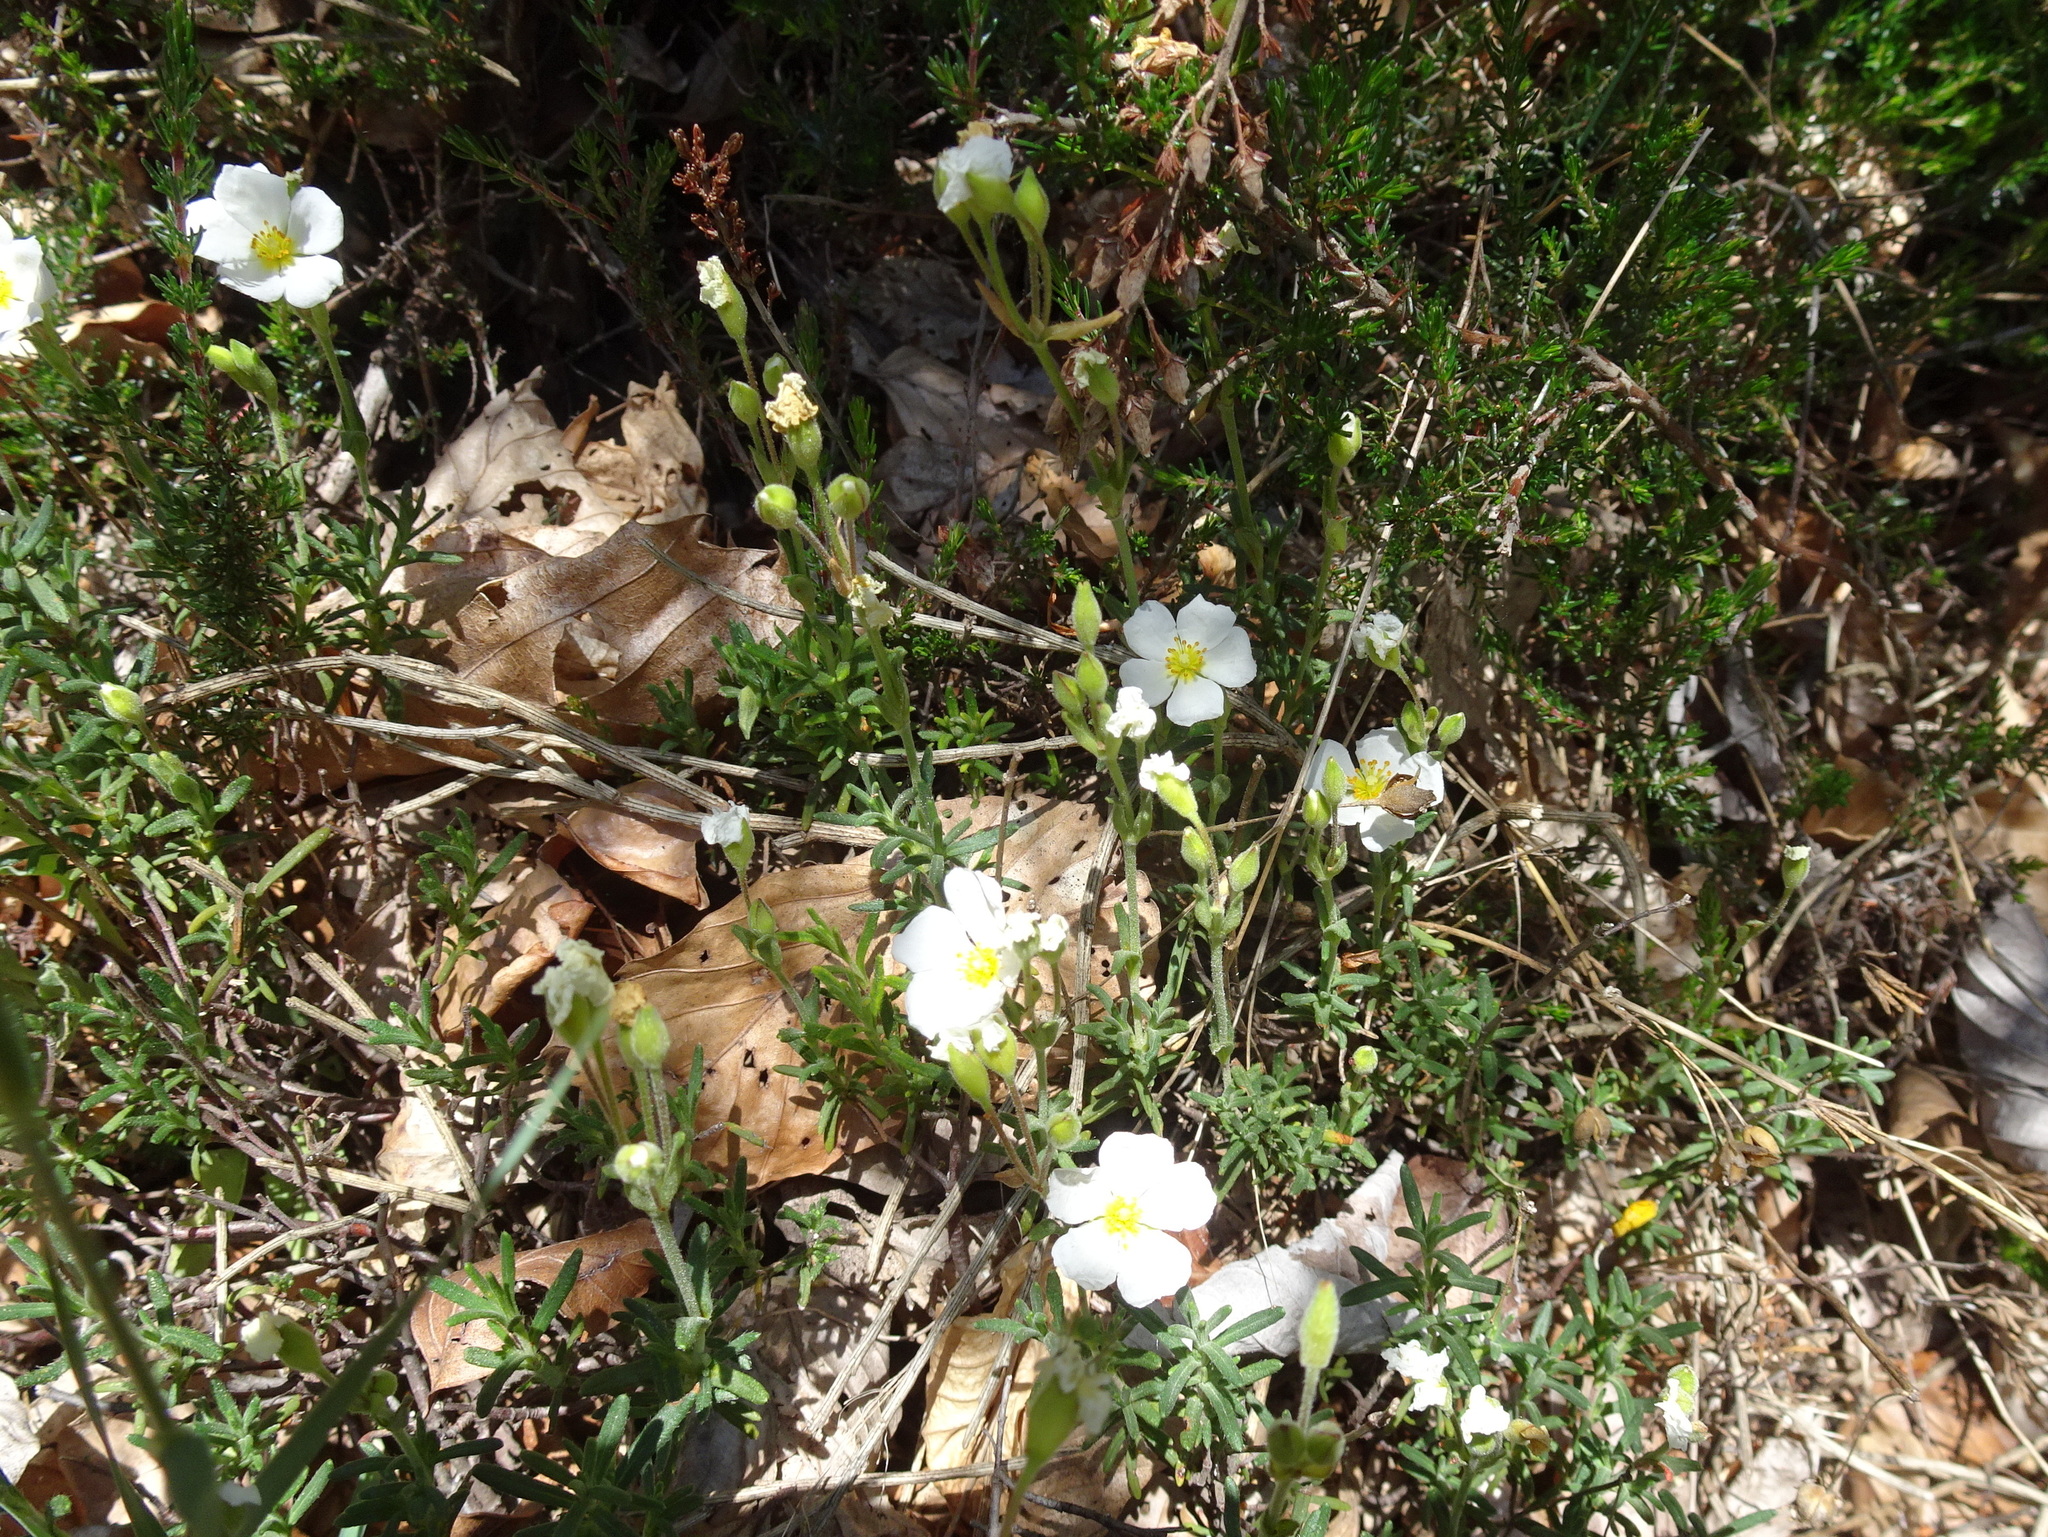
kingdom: Plantae
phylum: Tracheophyta
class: Magnoliopsida
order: Malvales
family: Cistaceae
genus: Halimium
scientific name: Halimium umbellatum
